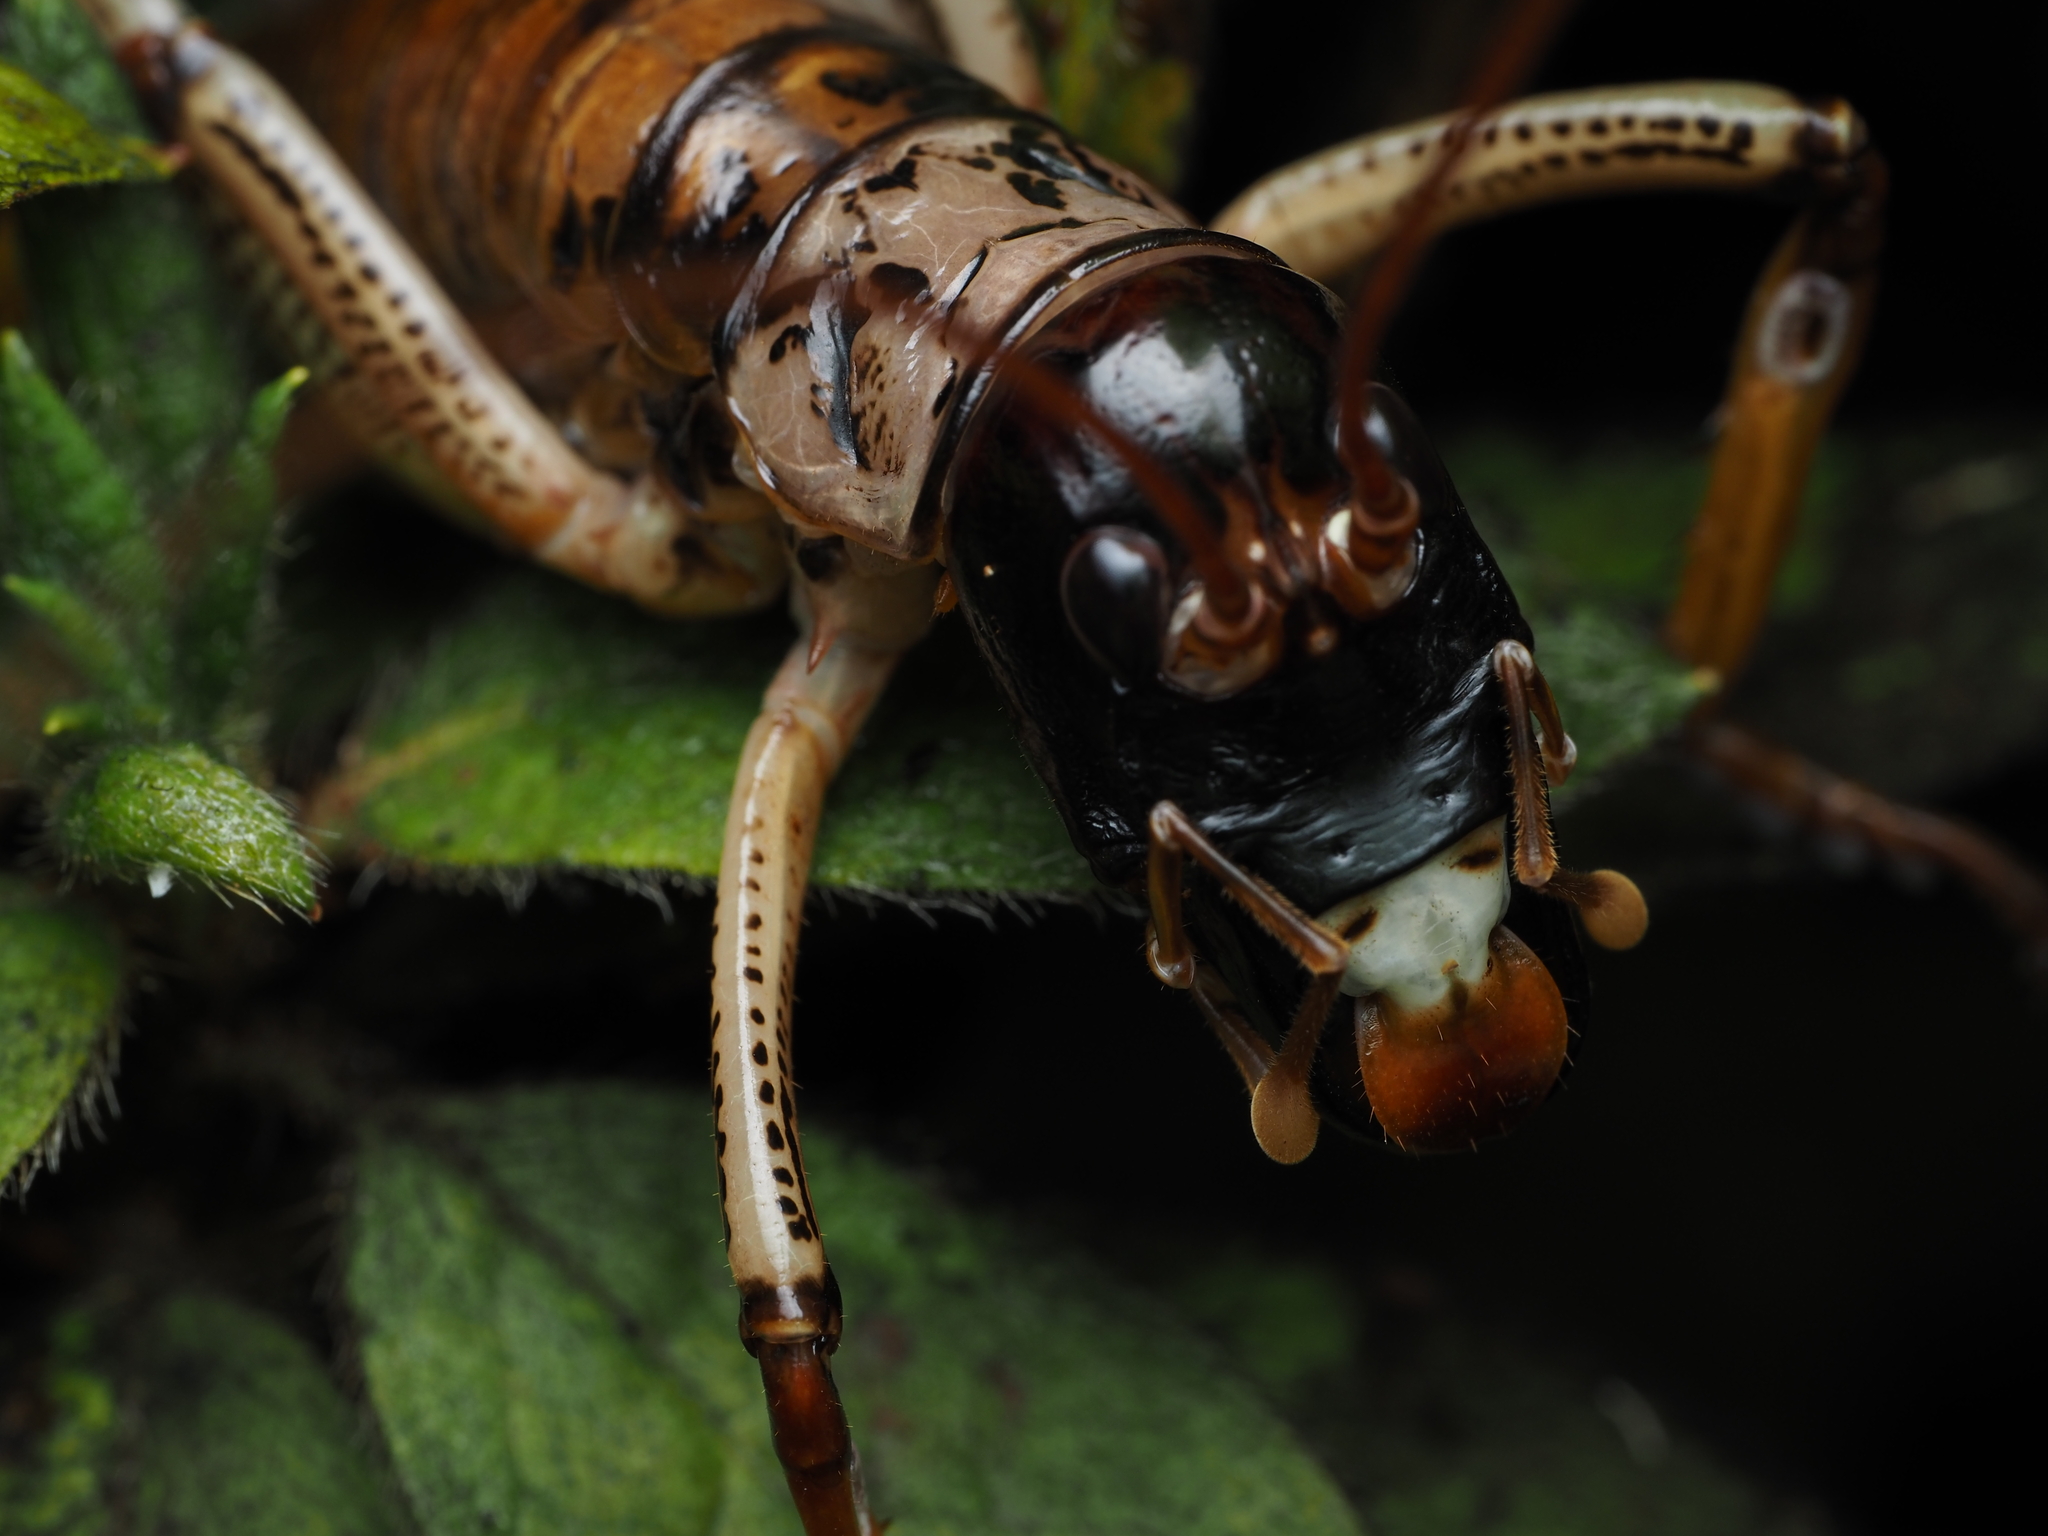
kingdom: Animalia
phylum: Arthropoda
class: Insecta
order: Orthoptera
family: Anostostomatidae
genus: Hemideina
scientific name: Hemideina thoracica
